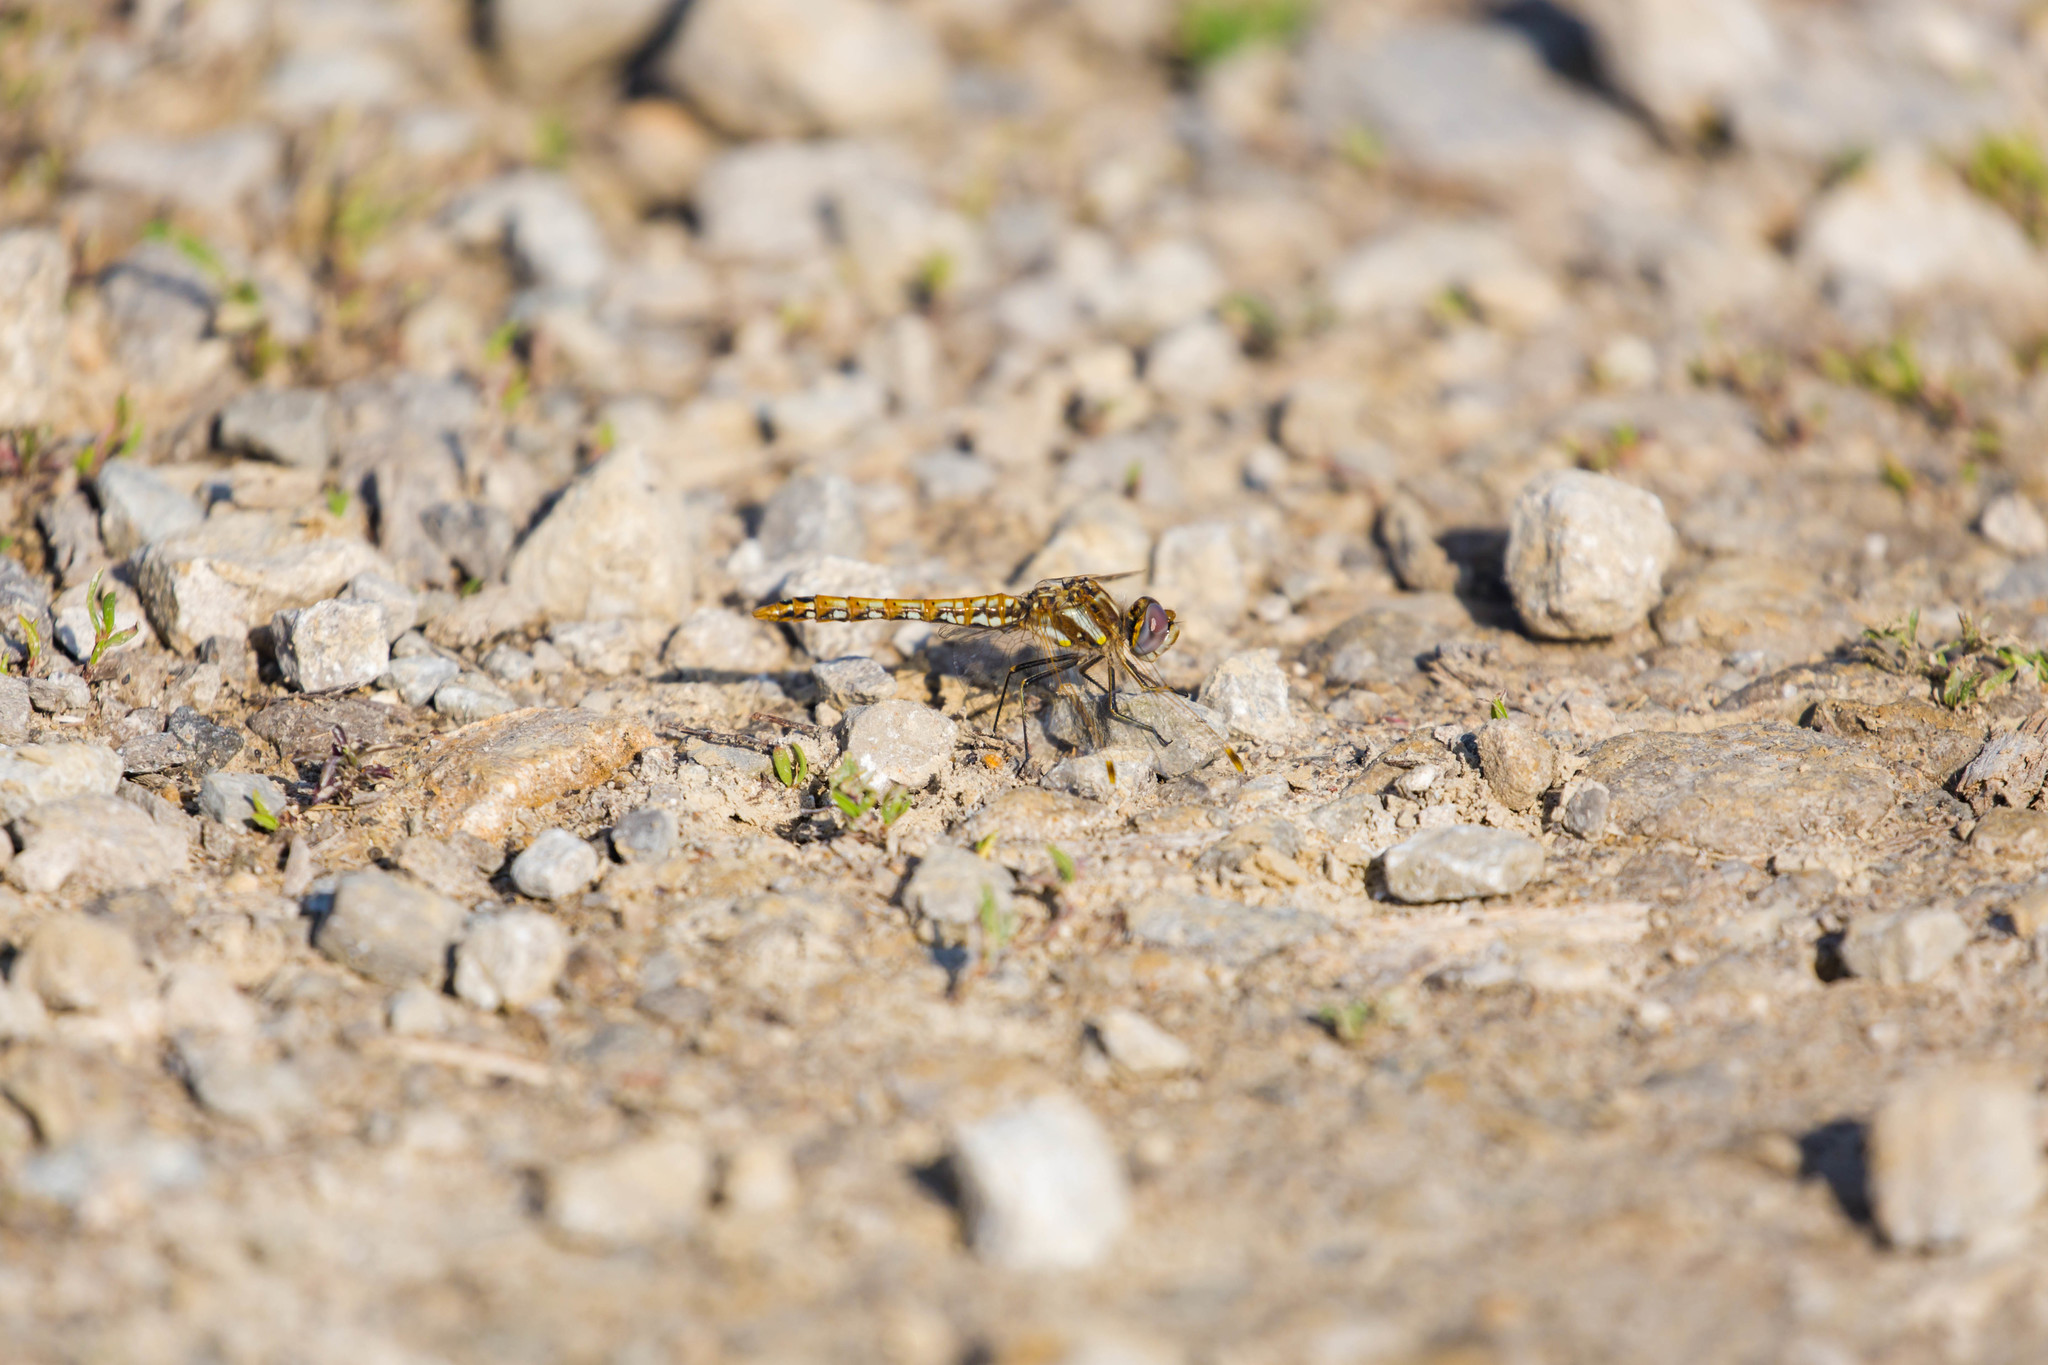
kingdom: Animalia
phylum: Arthropoda
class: Insecta
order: Odonata
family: Libellulidae
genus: Sympetrum
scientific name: Sympetrum corruptum
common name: Variegated meadowhawk
